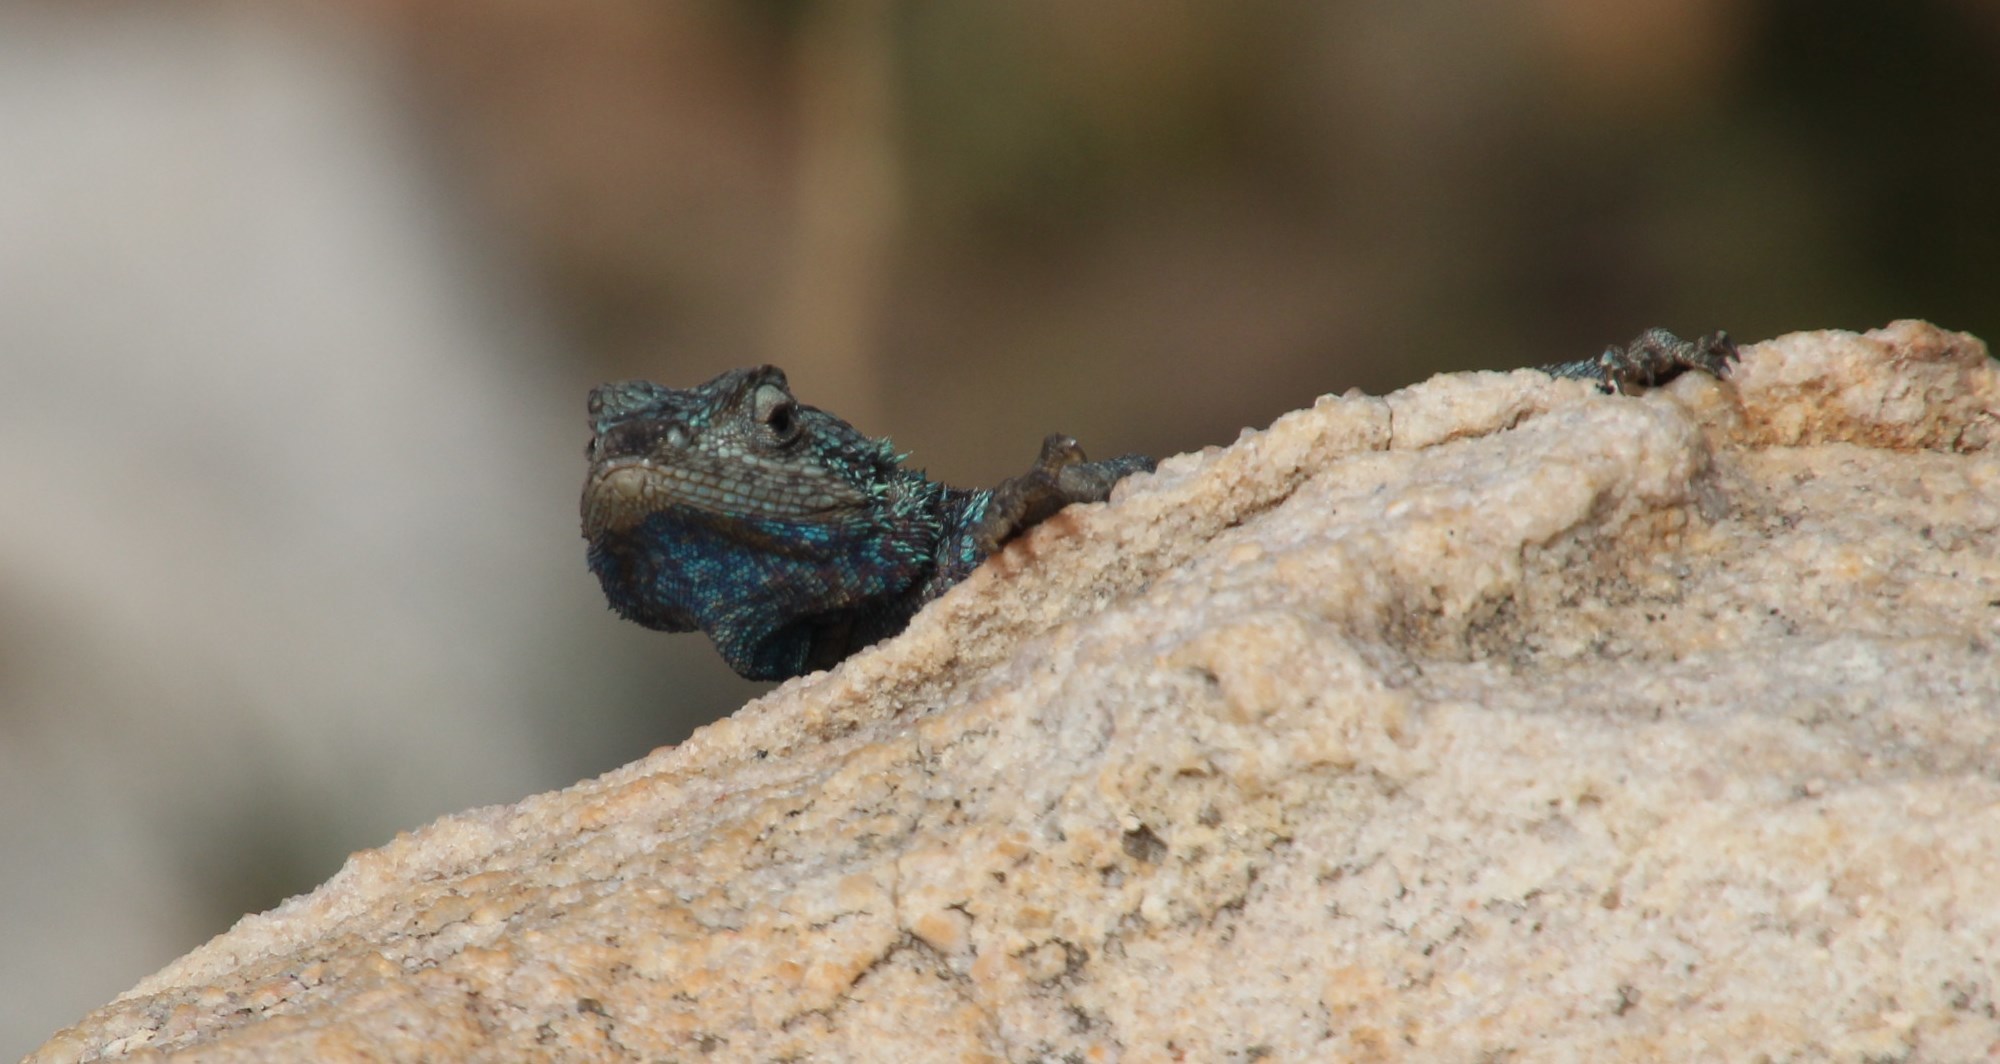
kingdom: Animalia
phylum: Chordata
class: Squamata
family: Agamidae
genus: Agama
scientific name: Agama atra
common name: Southern african rock agama
